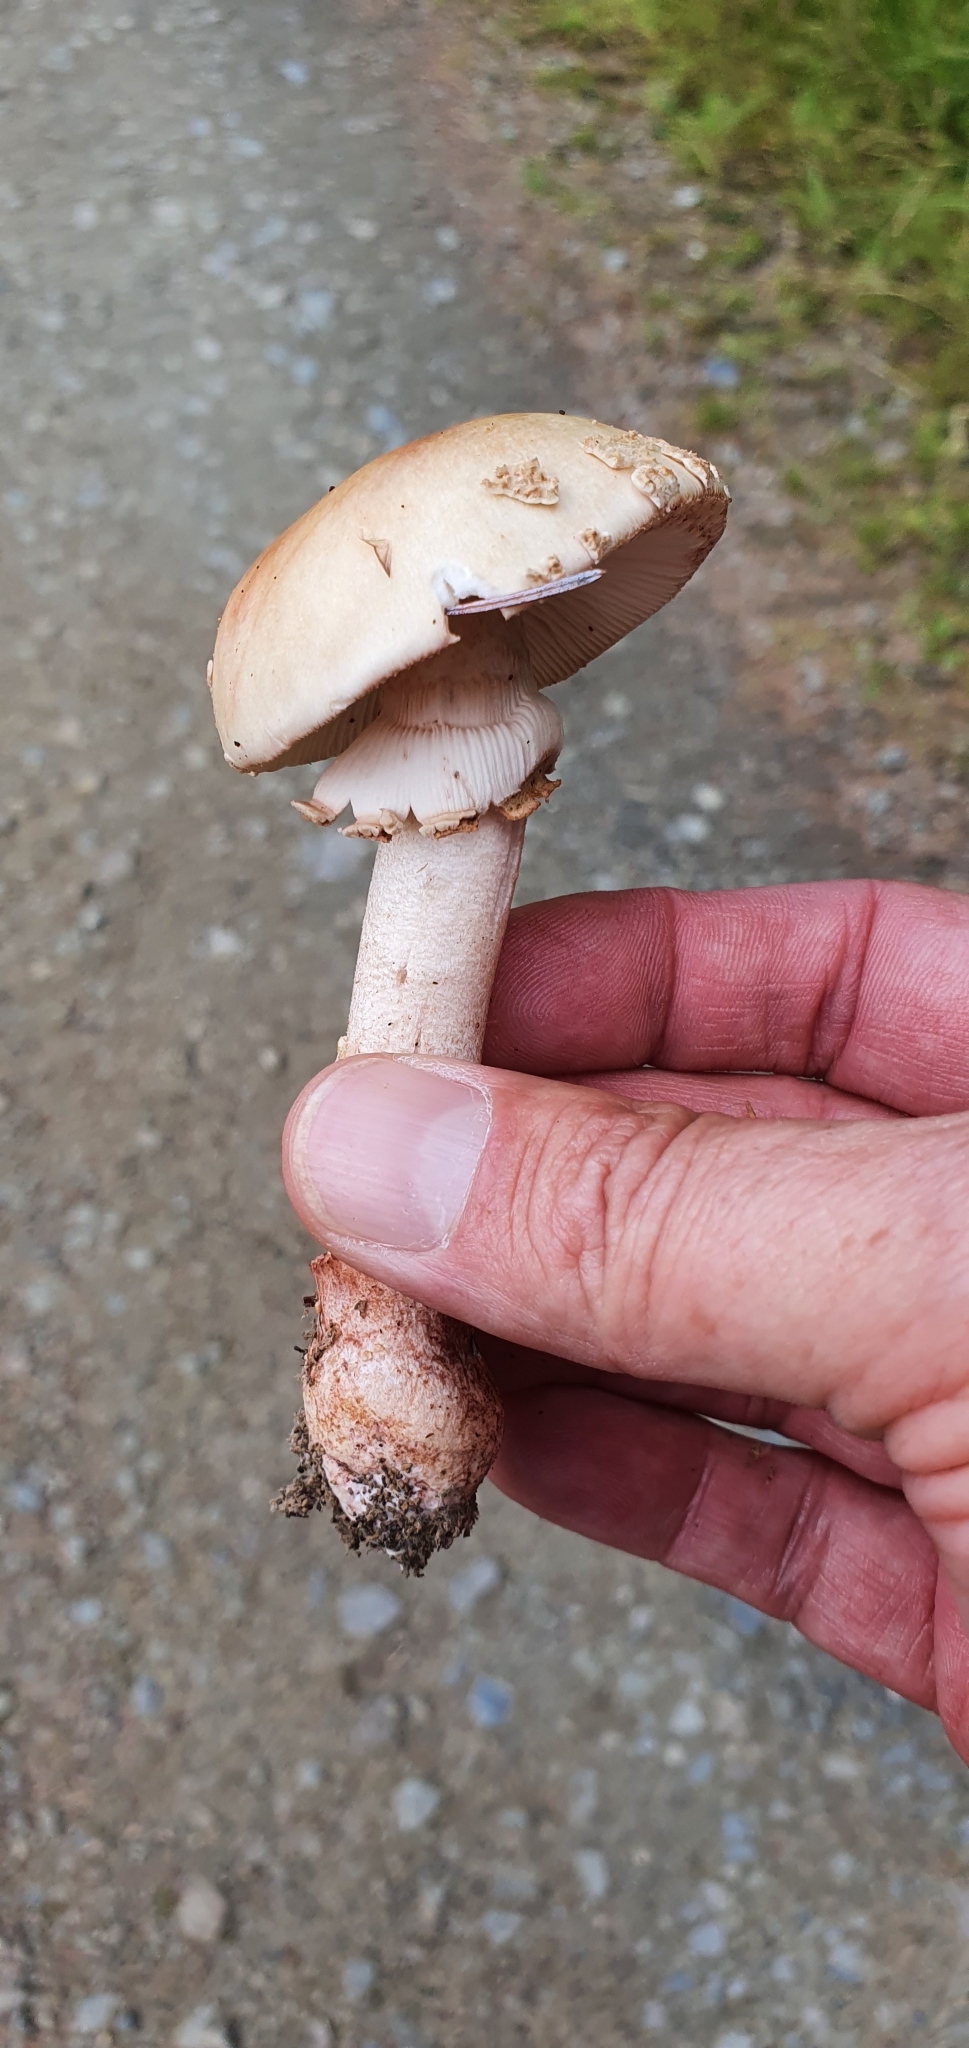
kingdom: Fungi
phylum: Basidiomycota
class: Agaricomycetes
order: Agaricales
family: Amanitaceae
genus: Amanita
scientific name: Amanita rubescens
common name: Blusher
